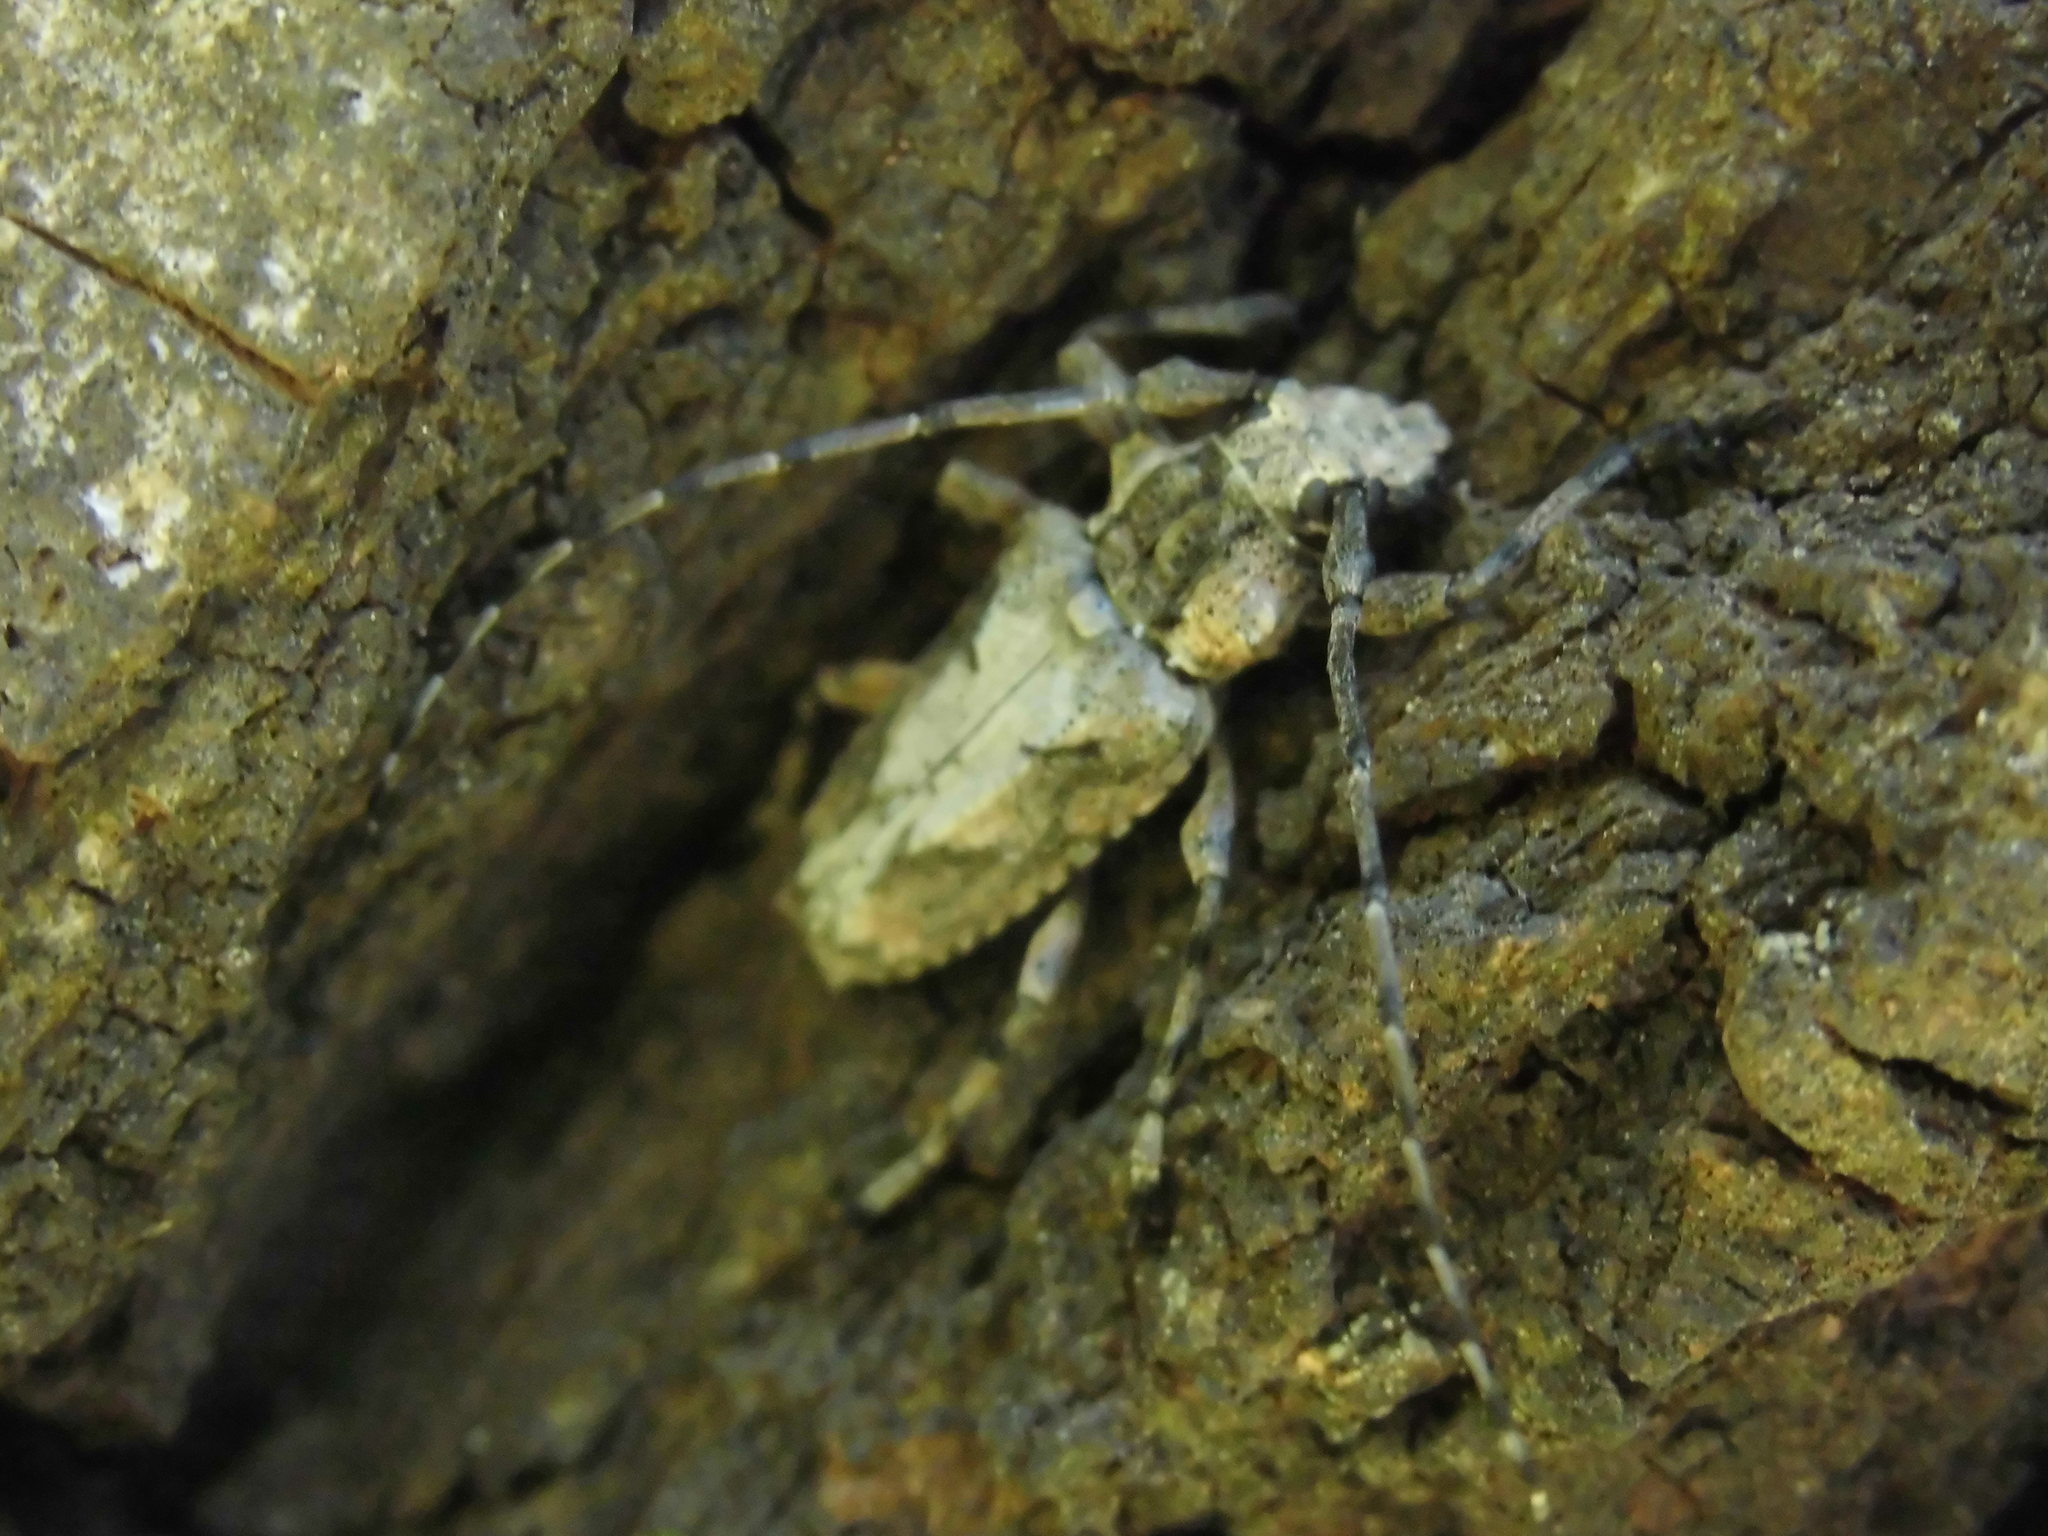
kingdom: Animalia
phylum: Arthropoda
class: Insecta
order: Coleoptera
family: Cerambycidae
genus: Steirastoma
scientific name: Steirastoma stellio
